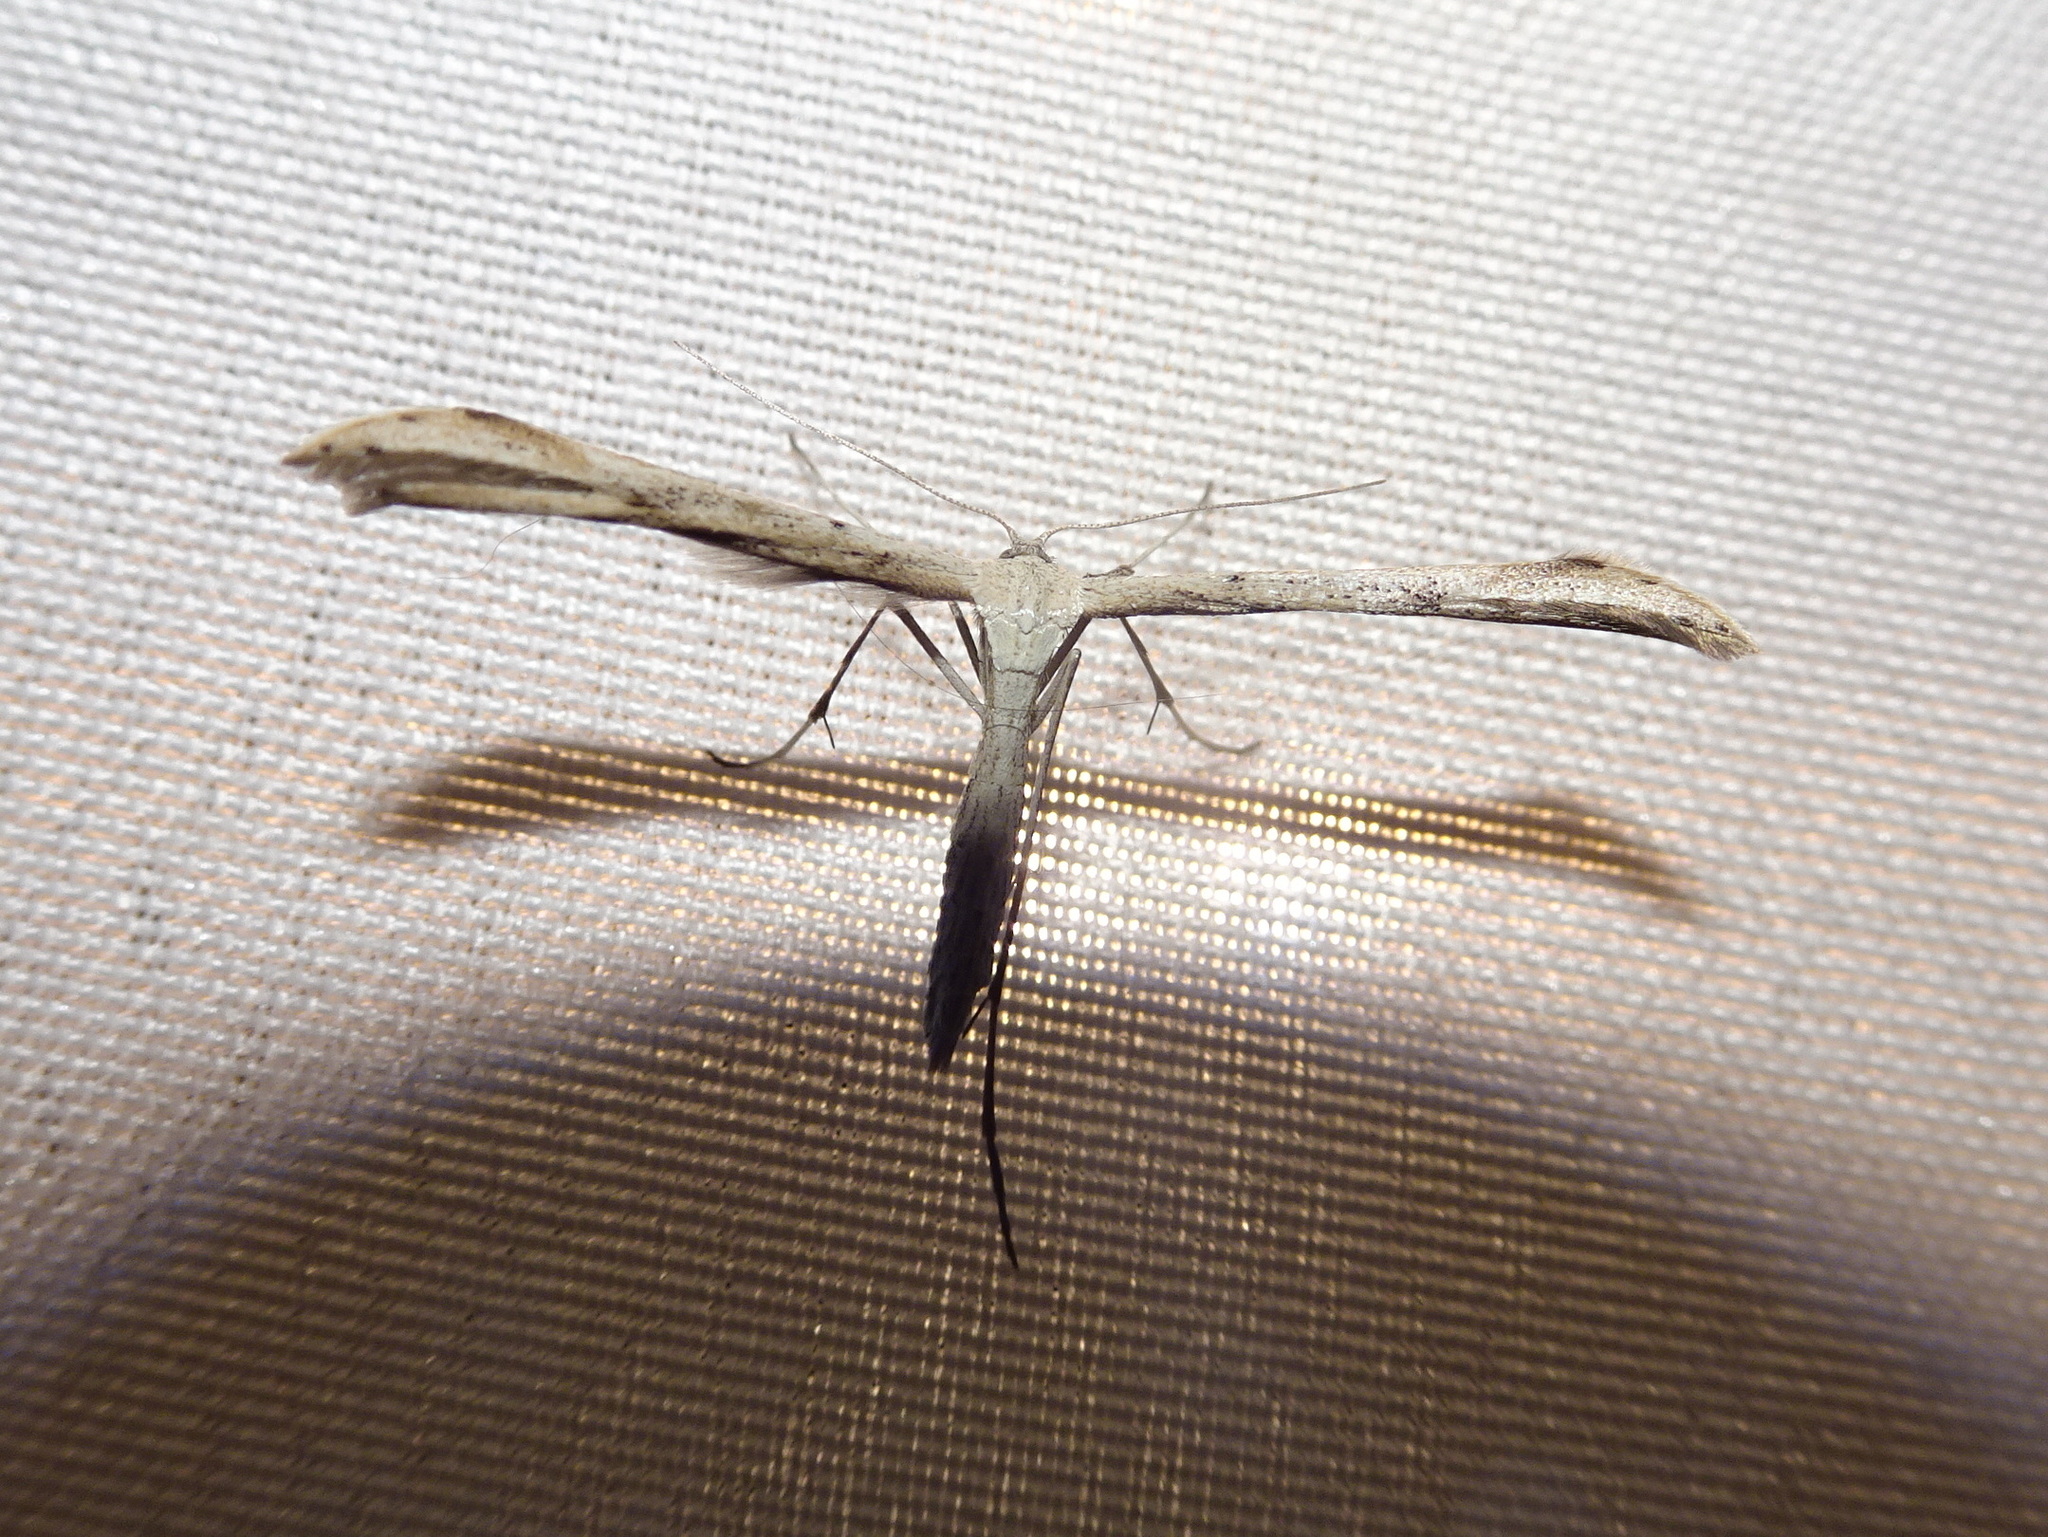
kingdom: Animalia
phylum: Arthropoda
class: Insecta
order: Lepidoptera
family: Pterophoridae
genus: Emmelina
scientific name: Emmelina monodactyla
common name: Common plume
